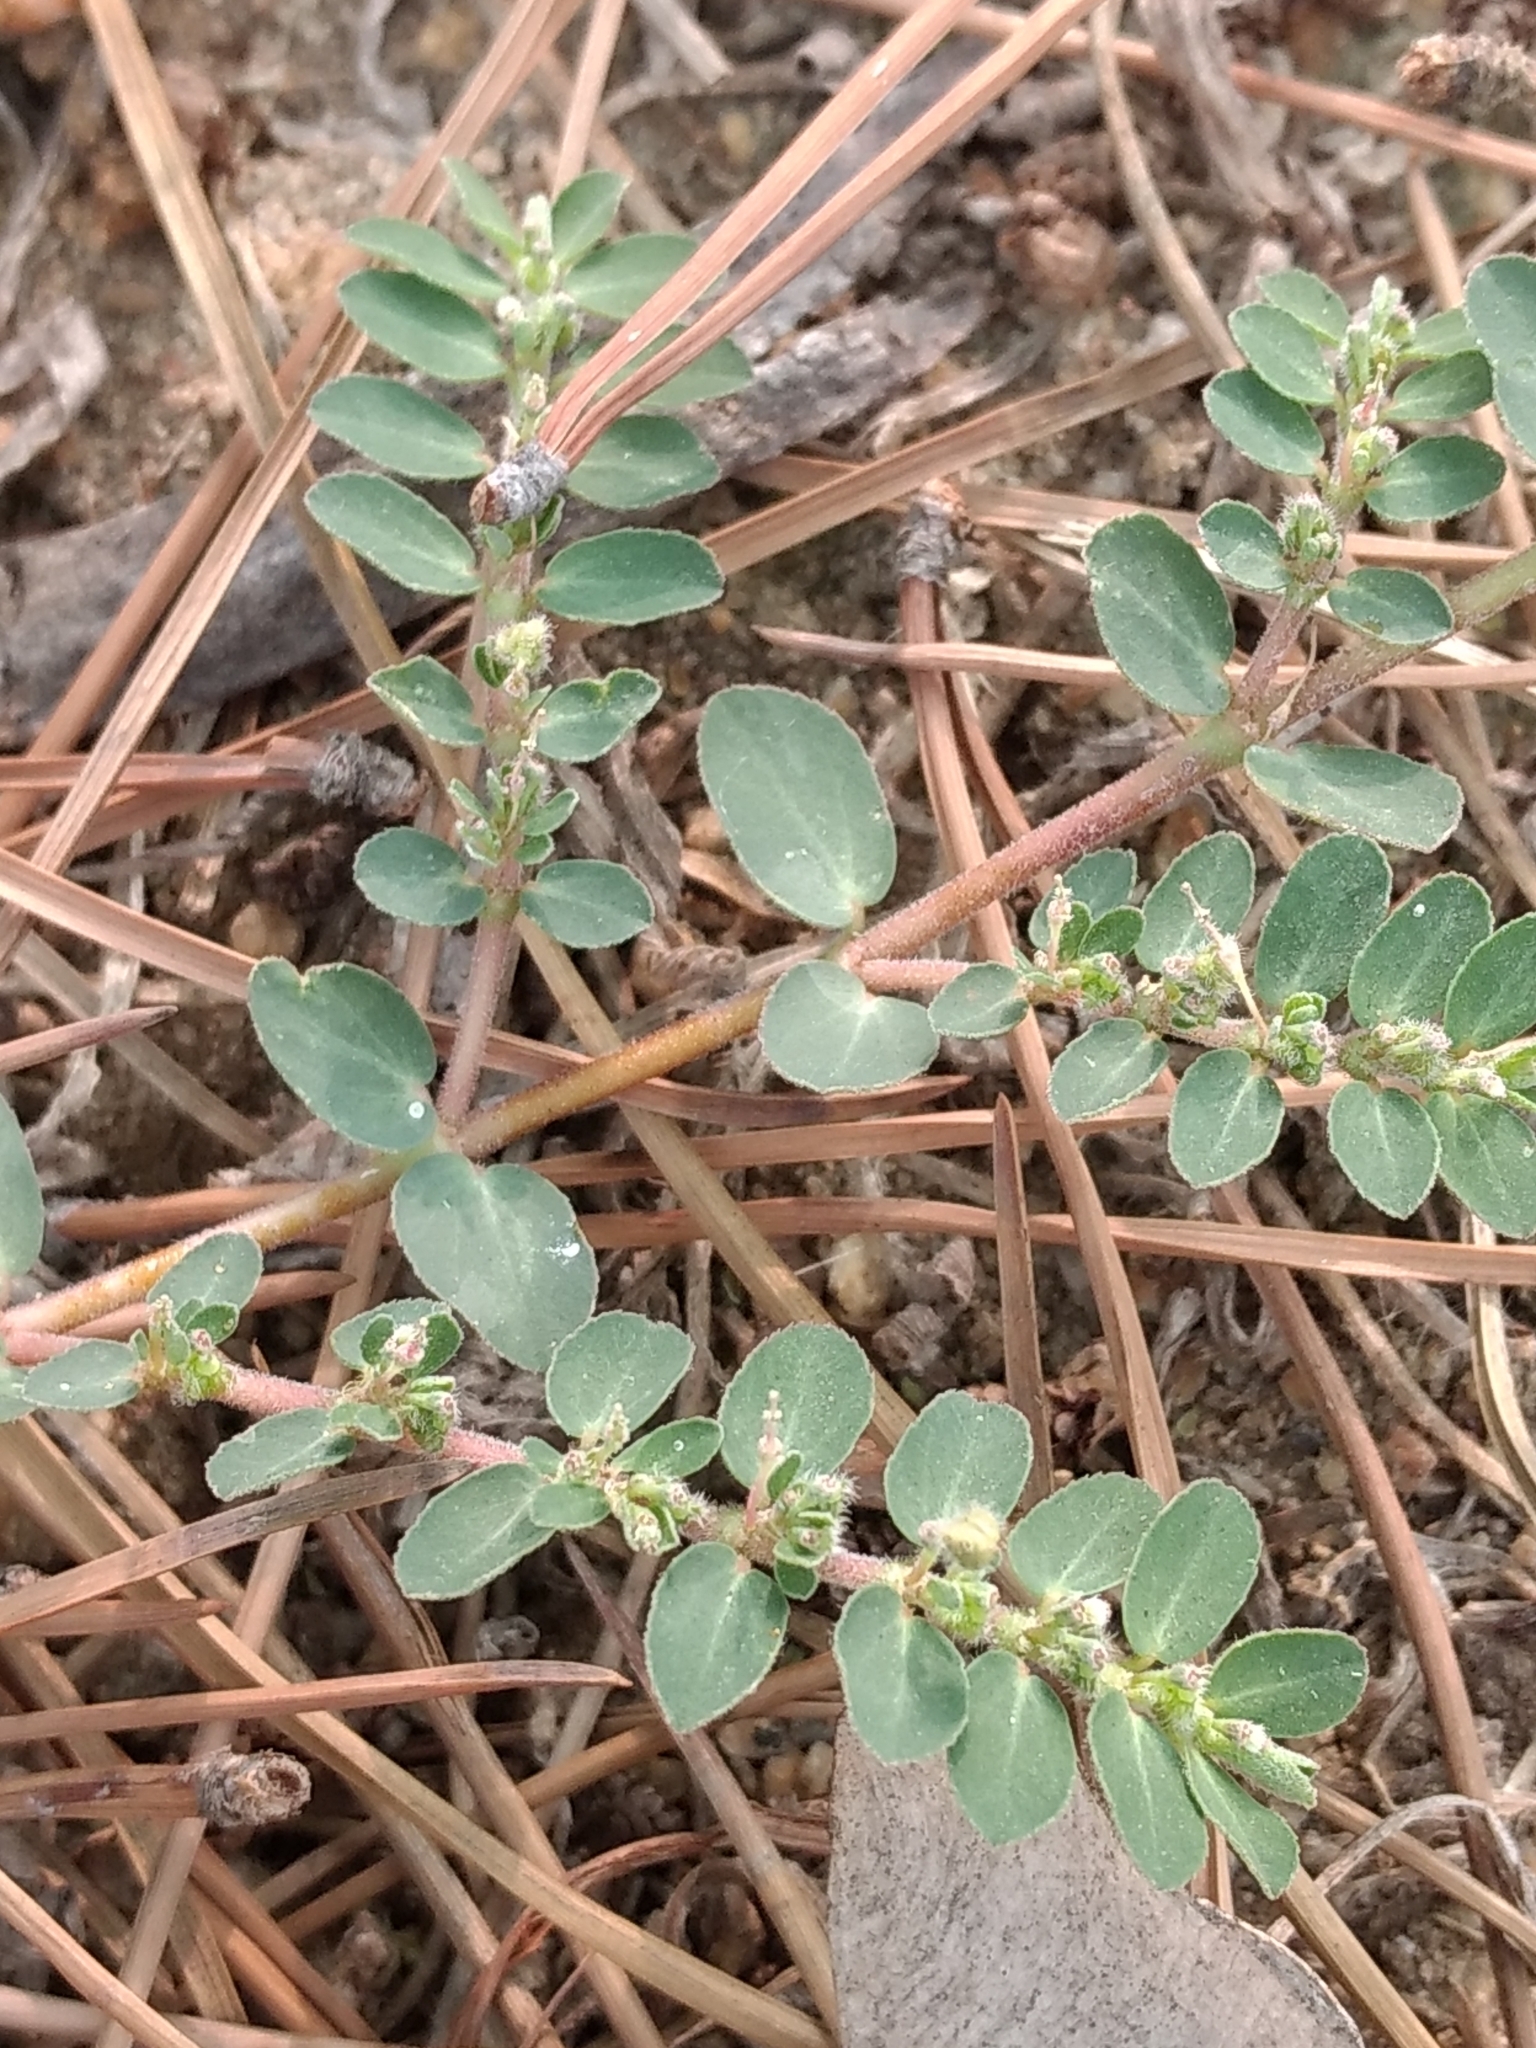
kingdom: Plantae
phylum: Tracheophyta
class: Magnoliopsida
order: Malpighiales
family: Euphorbiaceae
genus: Euphorbia
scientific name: Euphorbia prostrata
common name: Prostrate sandmat
